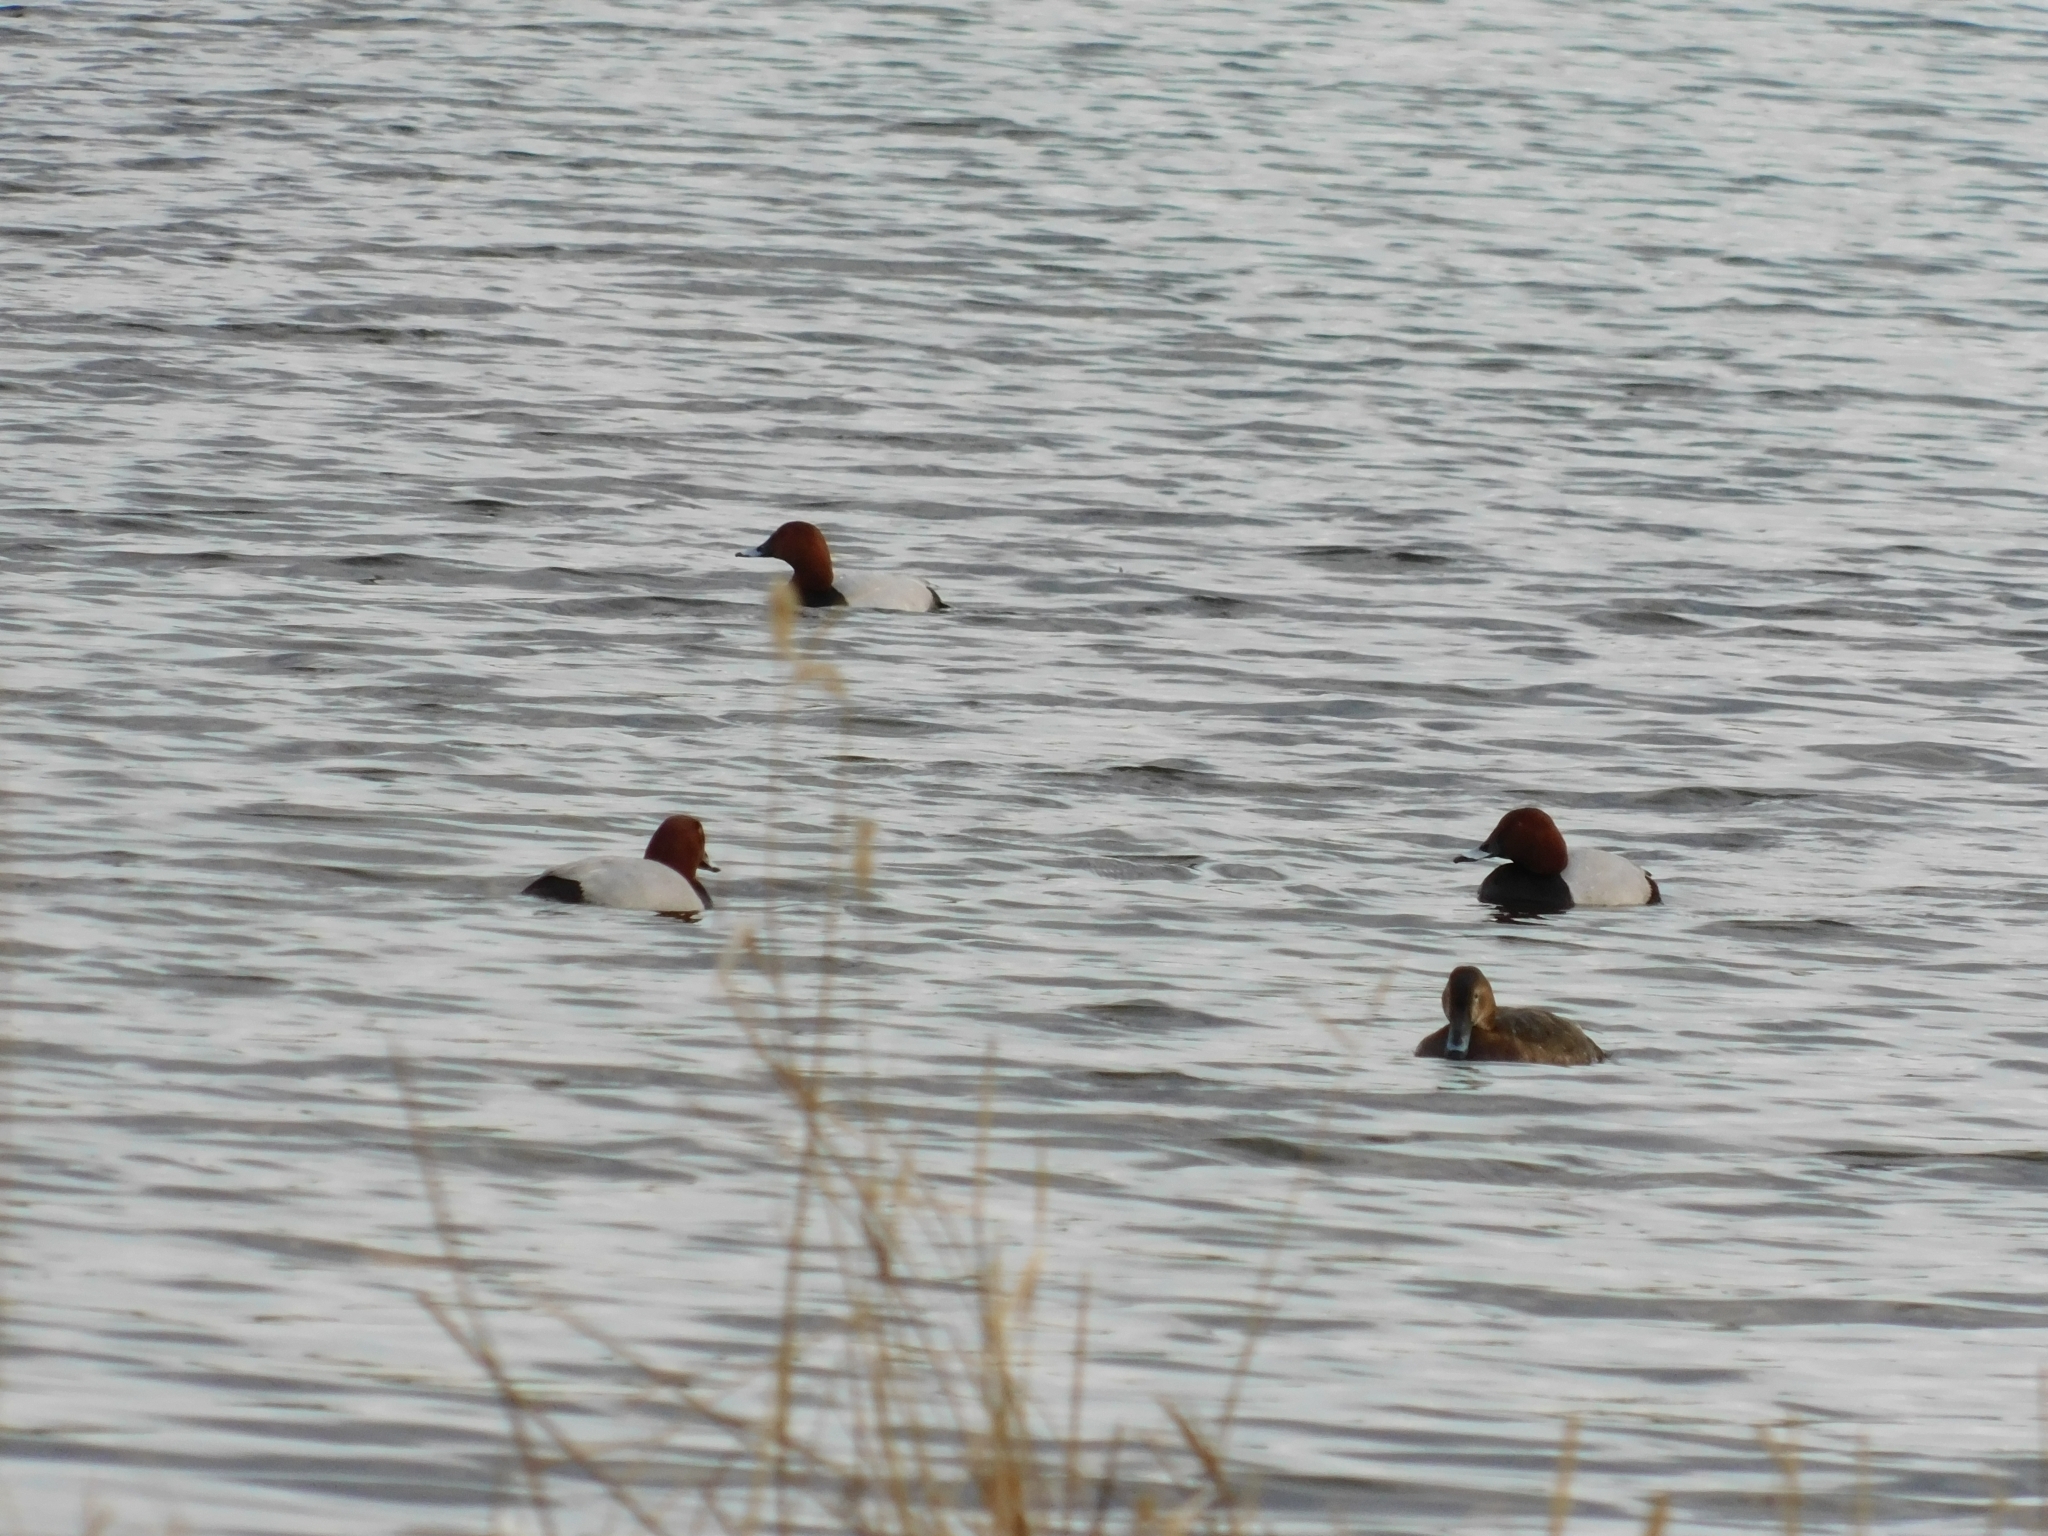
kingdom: Animalia
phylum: Chordata
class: Aves
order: Anseriformes
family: Anatidae
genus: Aythya
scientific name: Aythya ferina
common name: Common pochard
